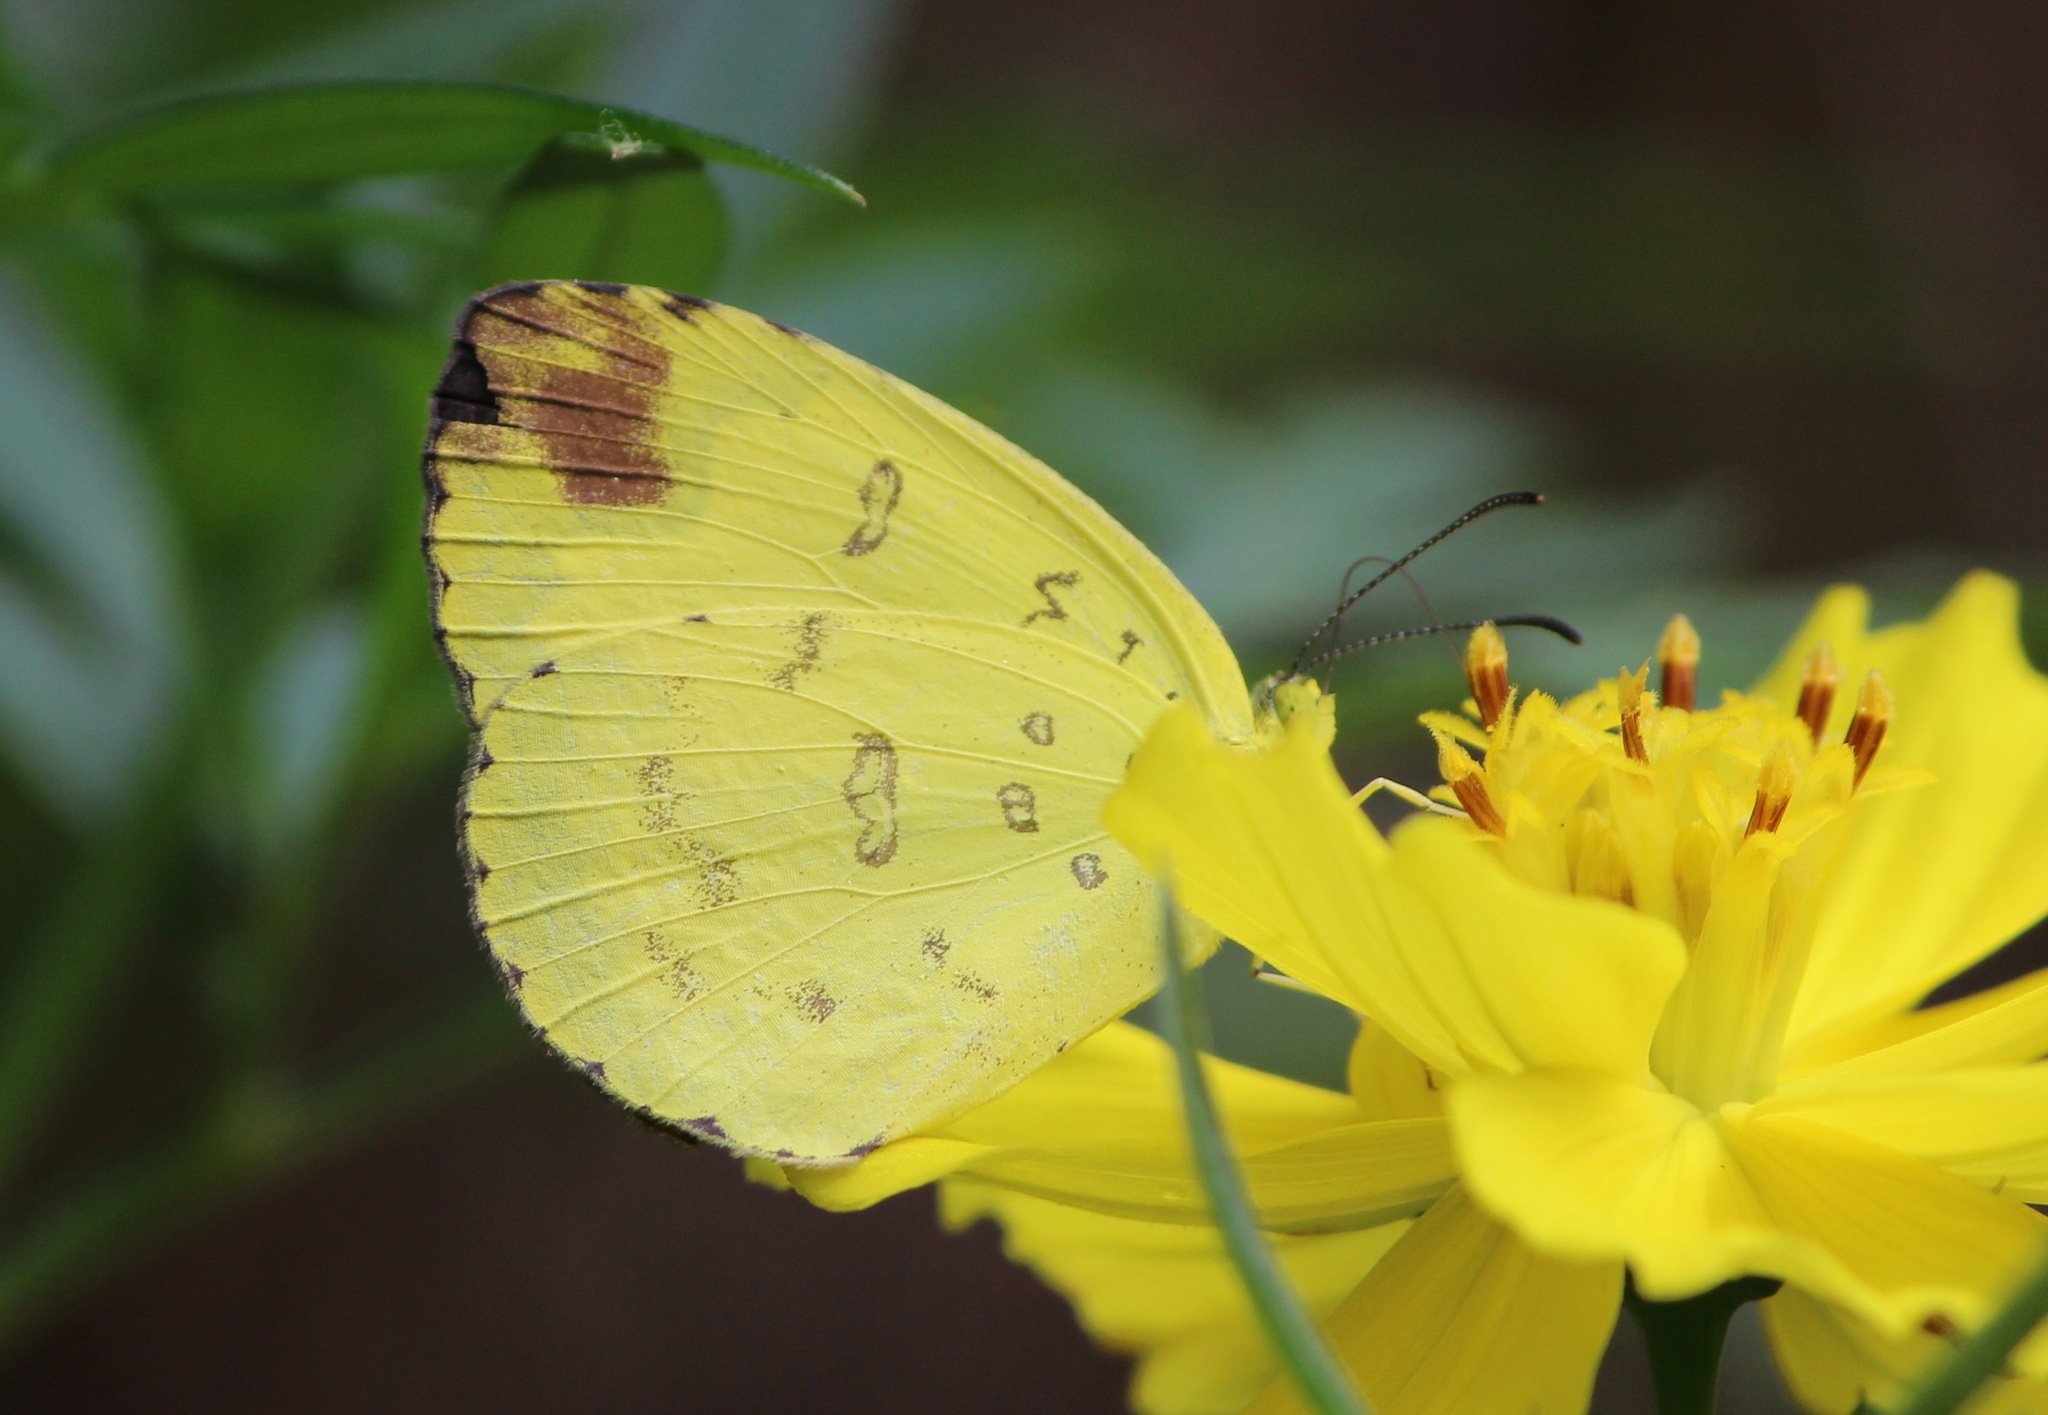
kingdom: Animalia
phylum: Arthropoda
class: Insecta
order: Lepidoptera
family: Pieridae
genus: Eurema
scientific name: Eurema blanda
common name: Three-spot grass yellow
